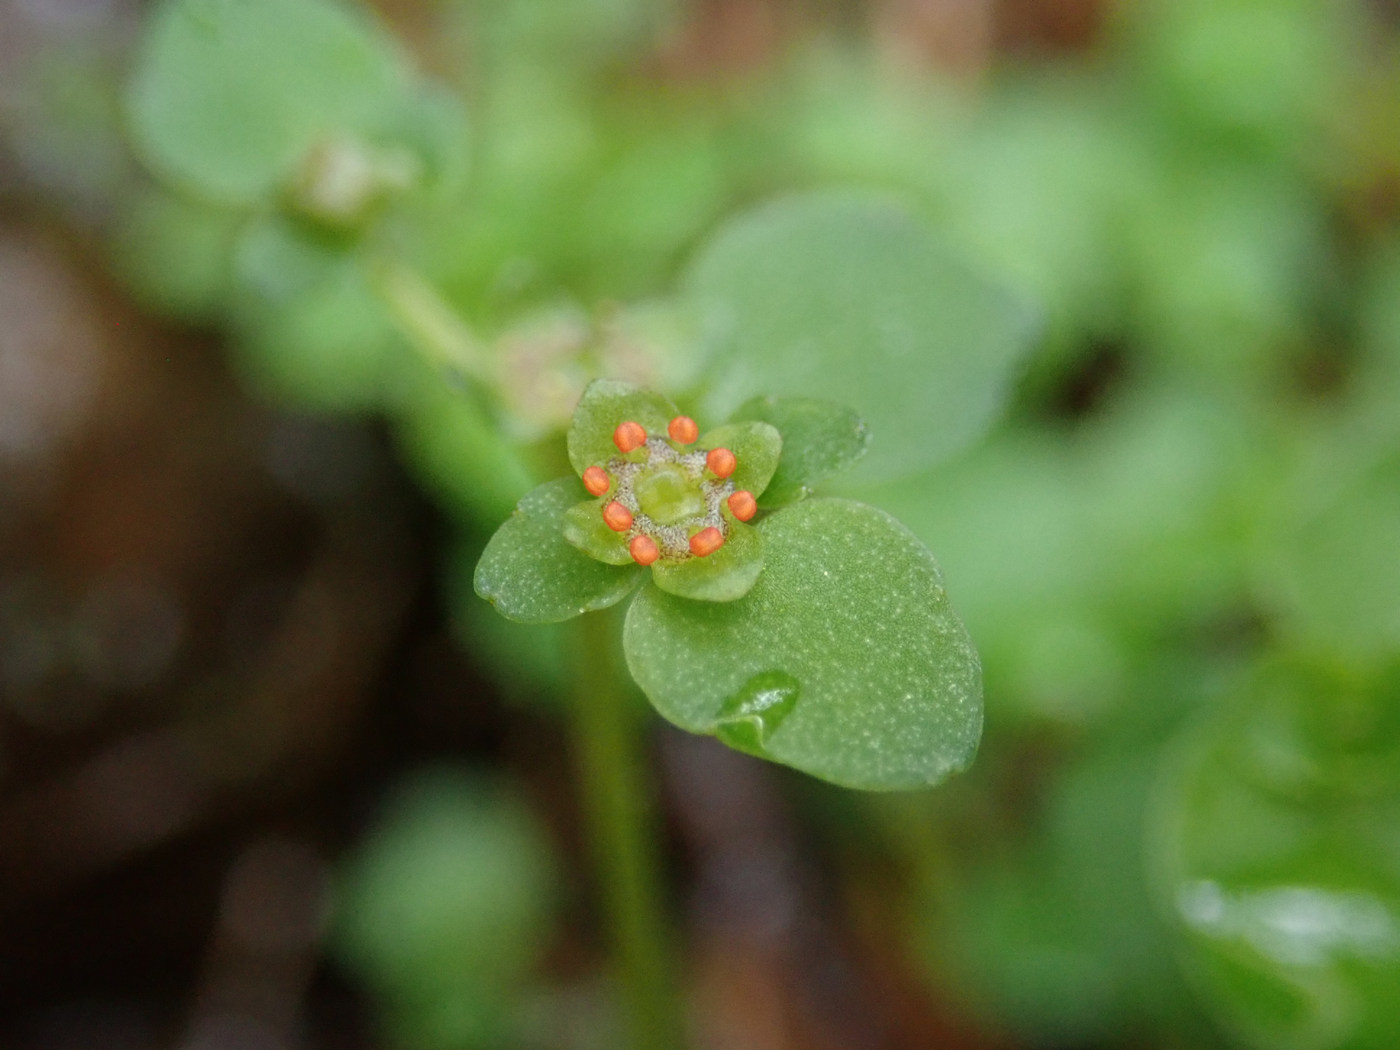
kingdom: Plantae
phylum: Tracheophyta
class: Magnoliopsida
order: Saxifragales
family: Saxifragaceae
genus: Chrysosplenium
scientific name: Chrysosplenium americanum
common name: American golden-saxifrage
